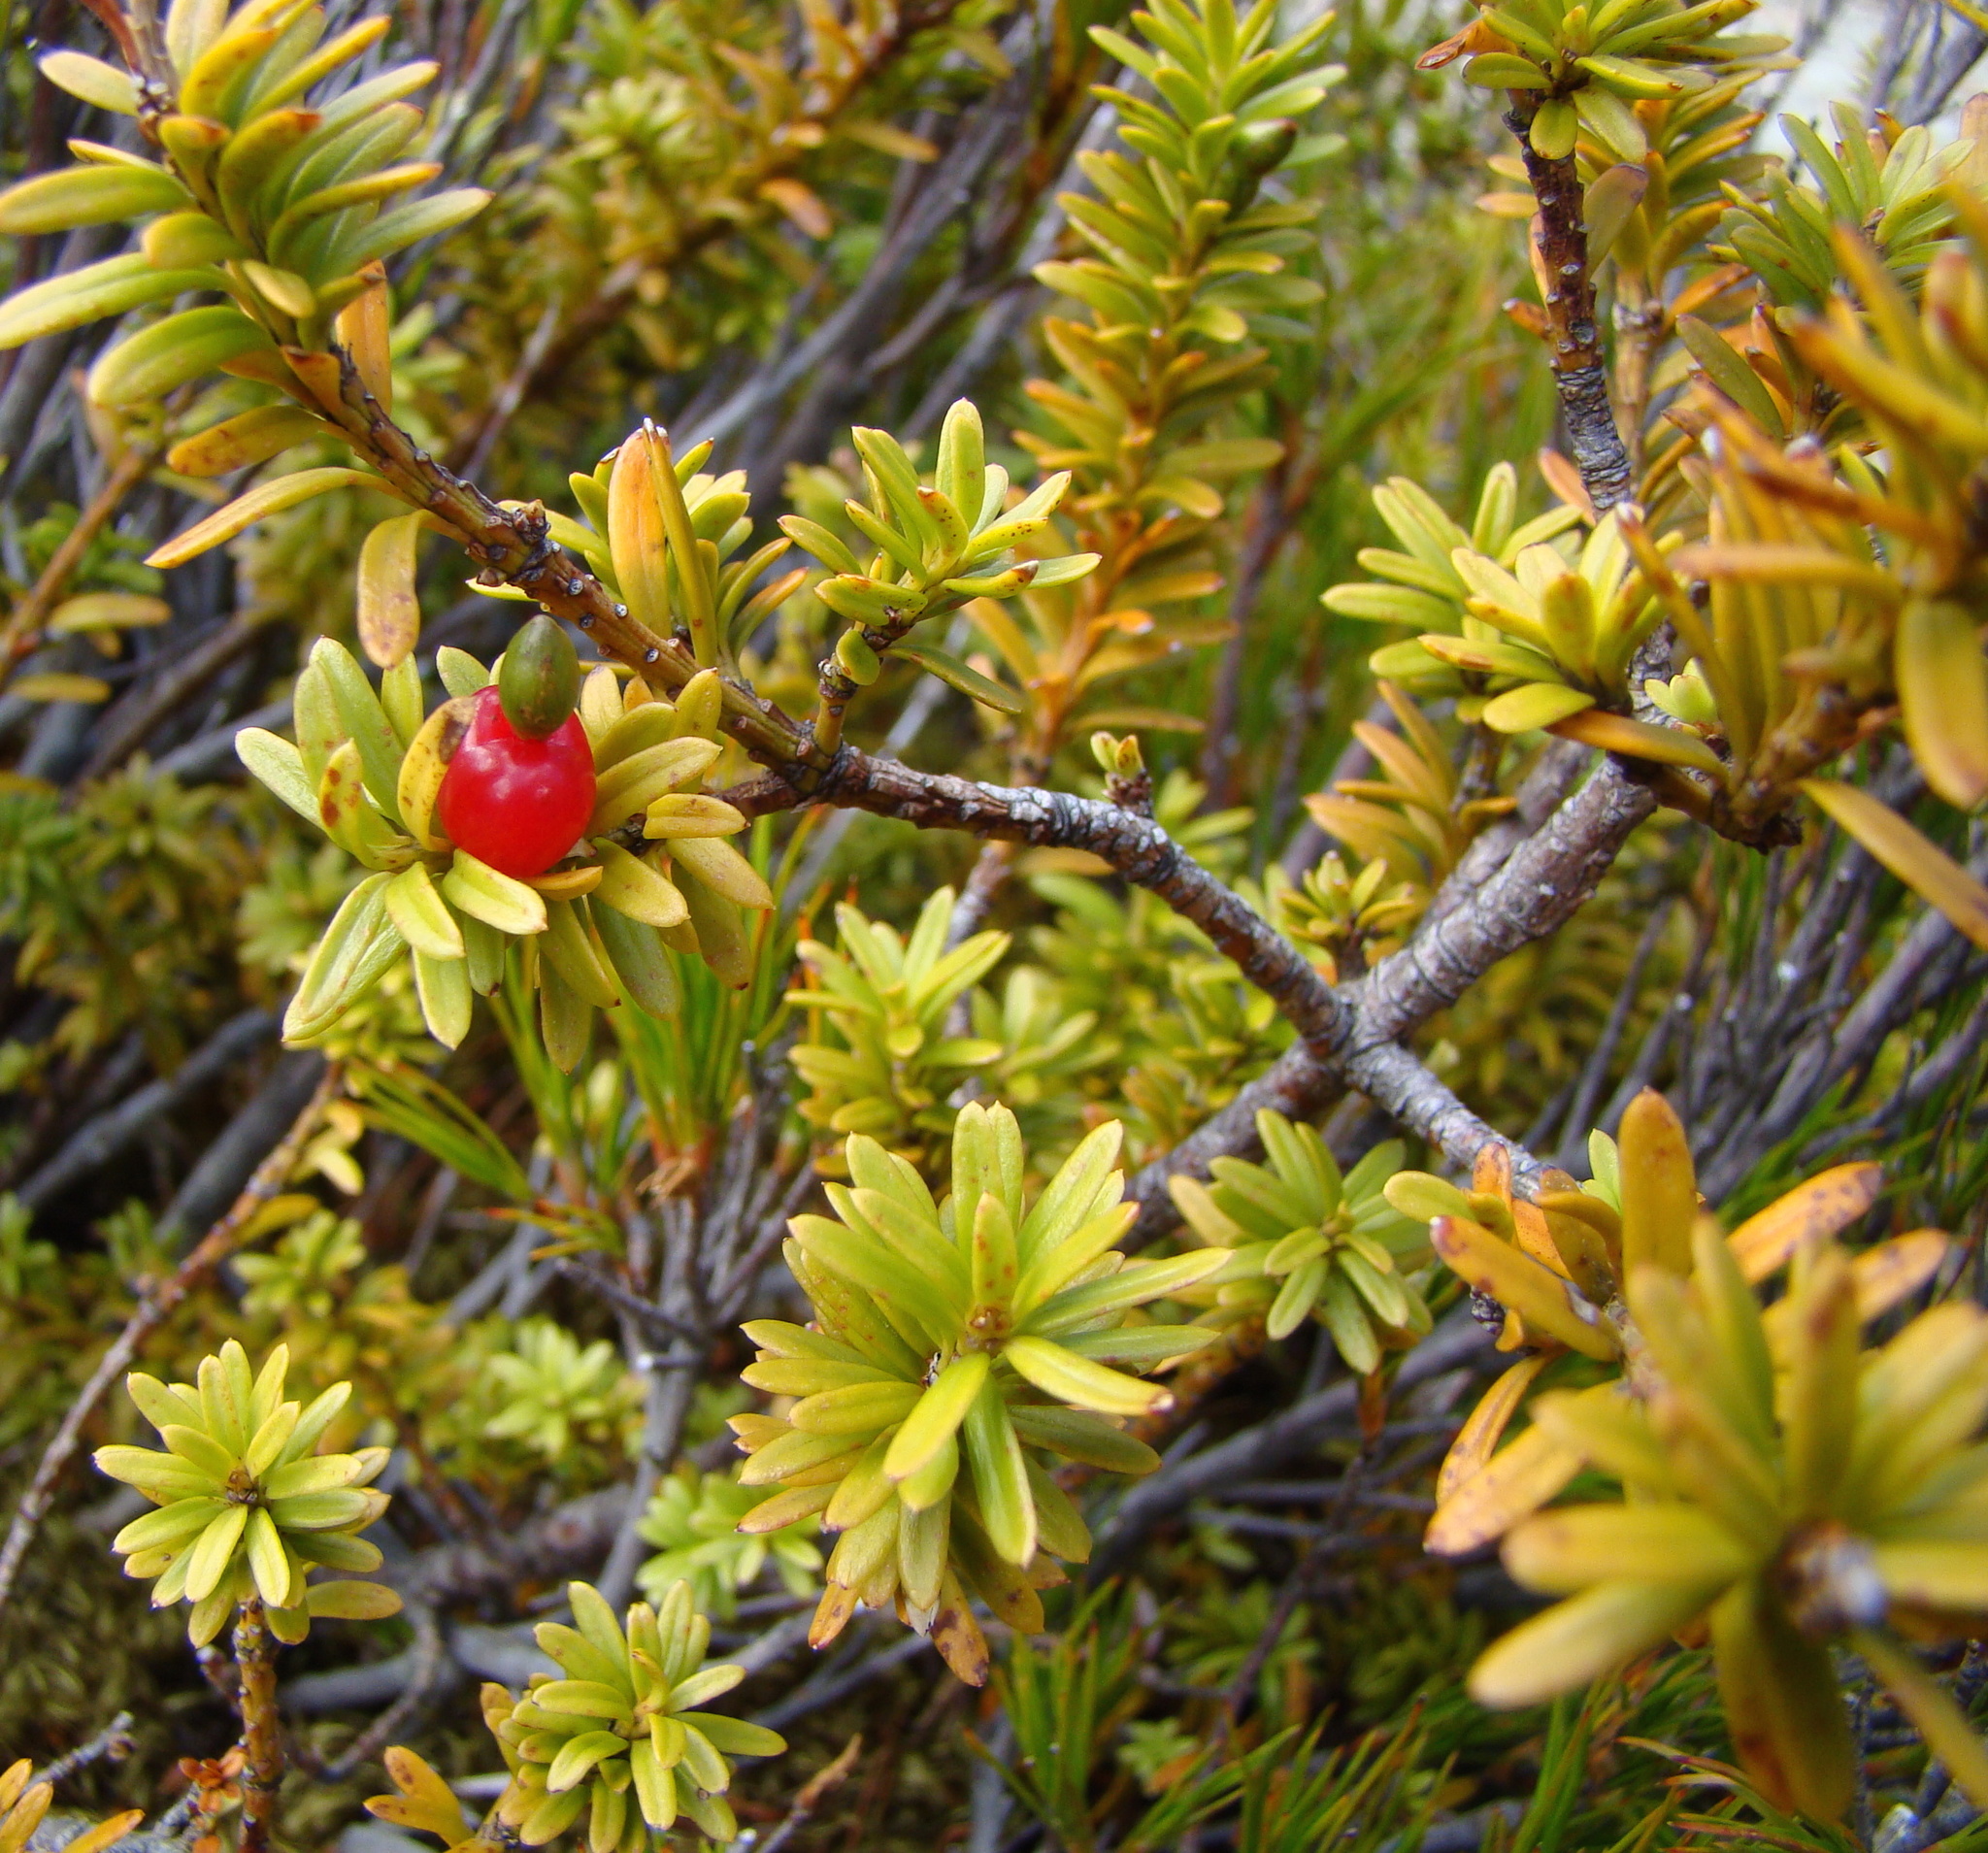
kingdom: Plantae
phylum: Tracheophyta
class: Pinopsida
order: Pinales
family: Podocarpaceae
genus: Podocarpus
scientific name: Podocarpus nivalis
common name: Alpine totara
